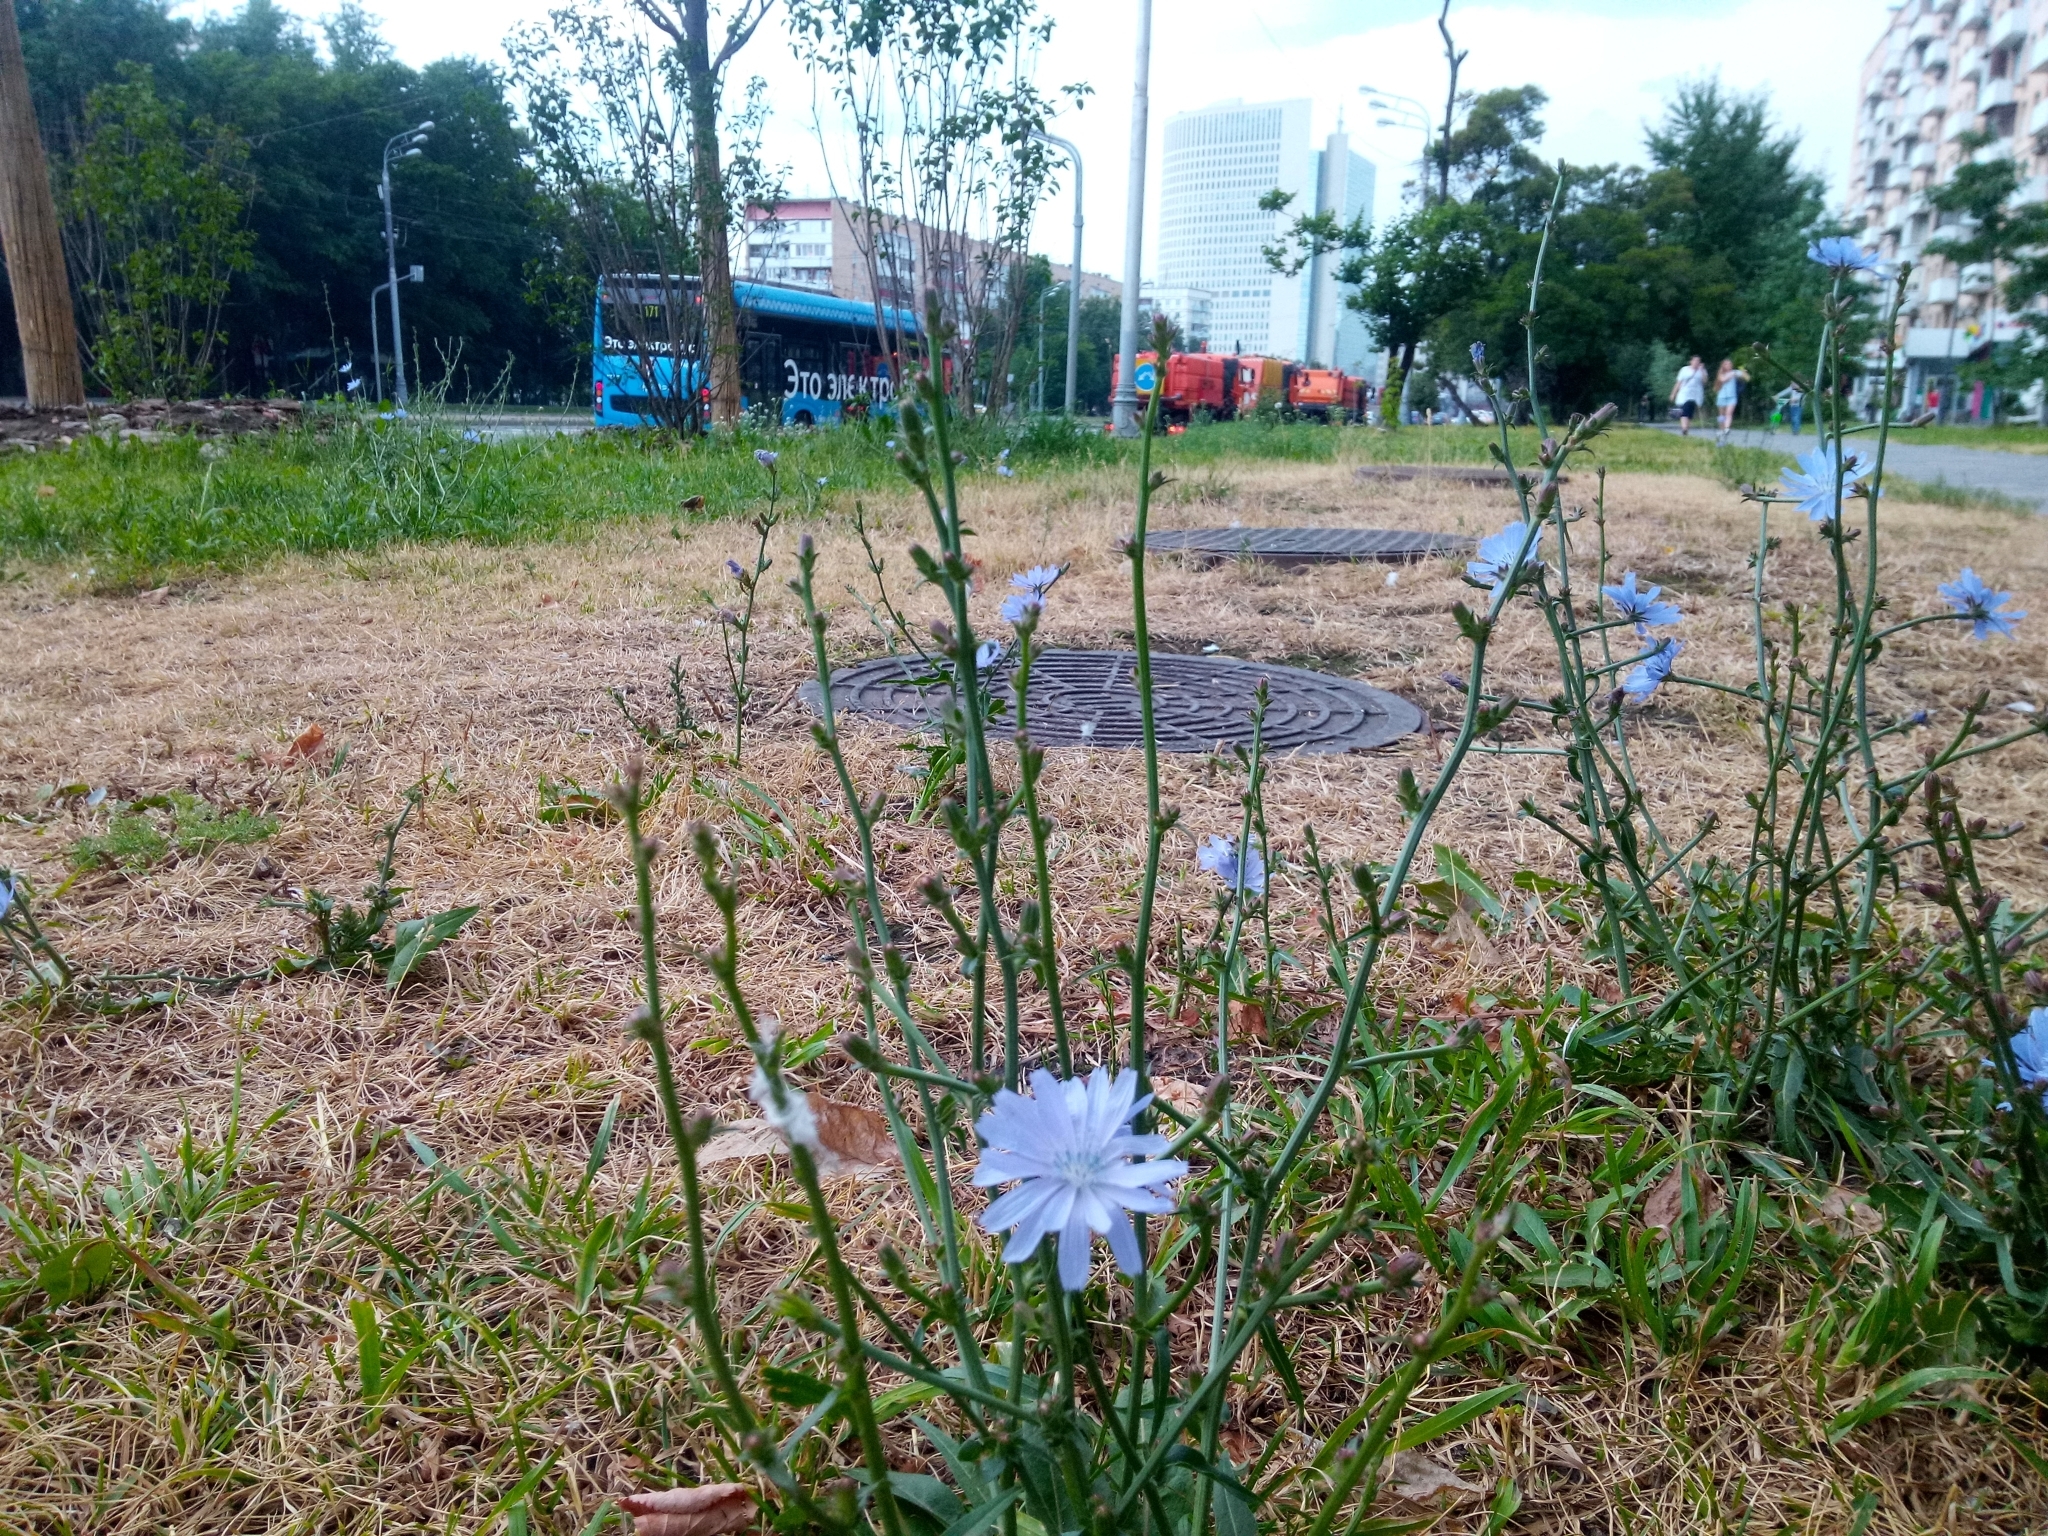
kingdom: Plantae
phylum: Tracheophyta
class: Magnoliopsida
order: Asterales
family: Asteraceae
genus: Cichorium
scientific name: Cichorium intybus
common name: Chicory
